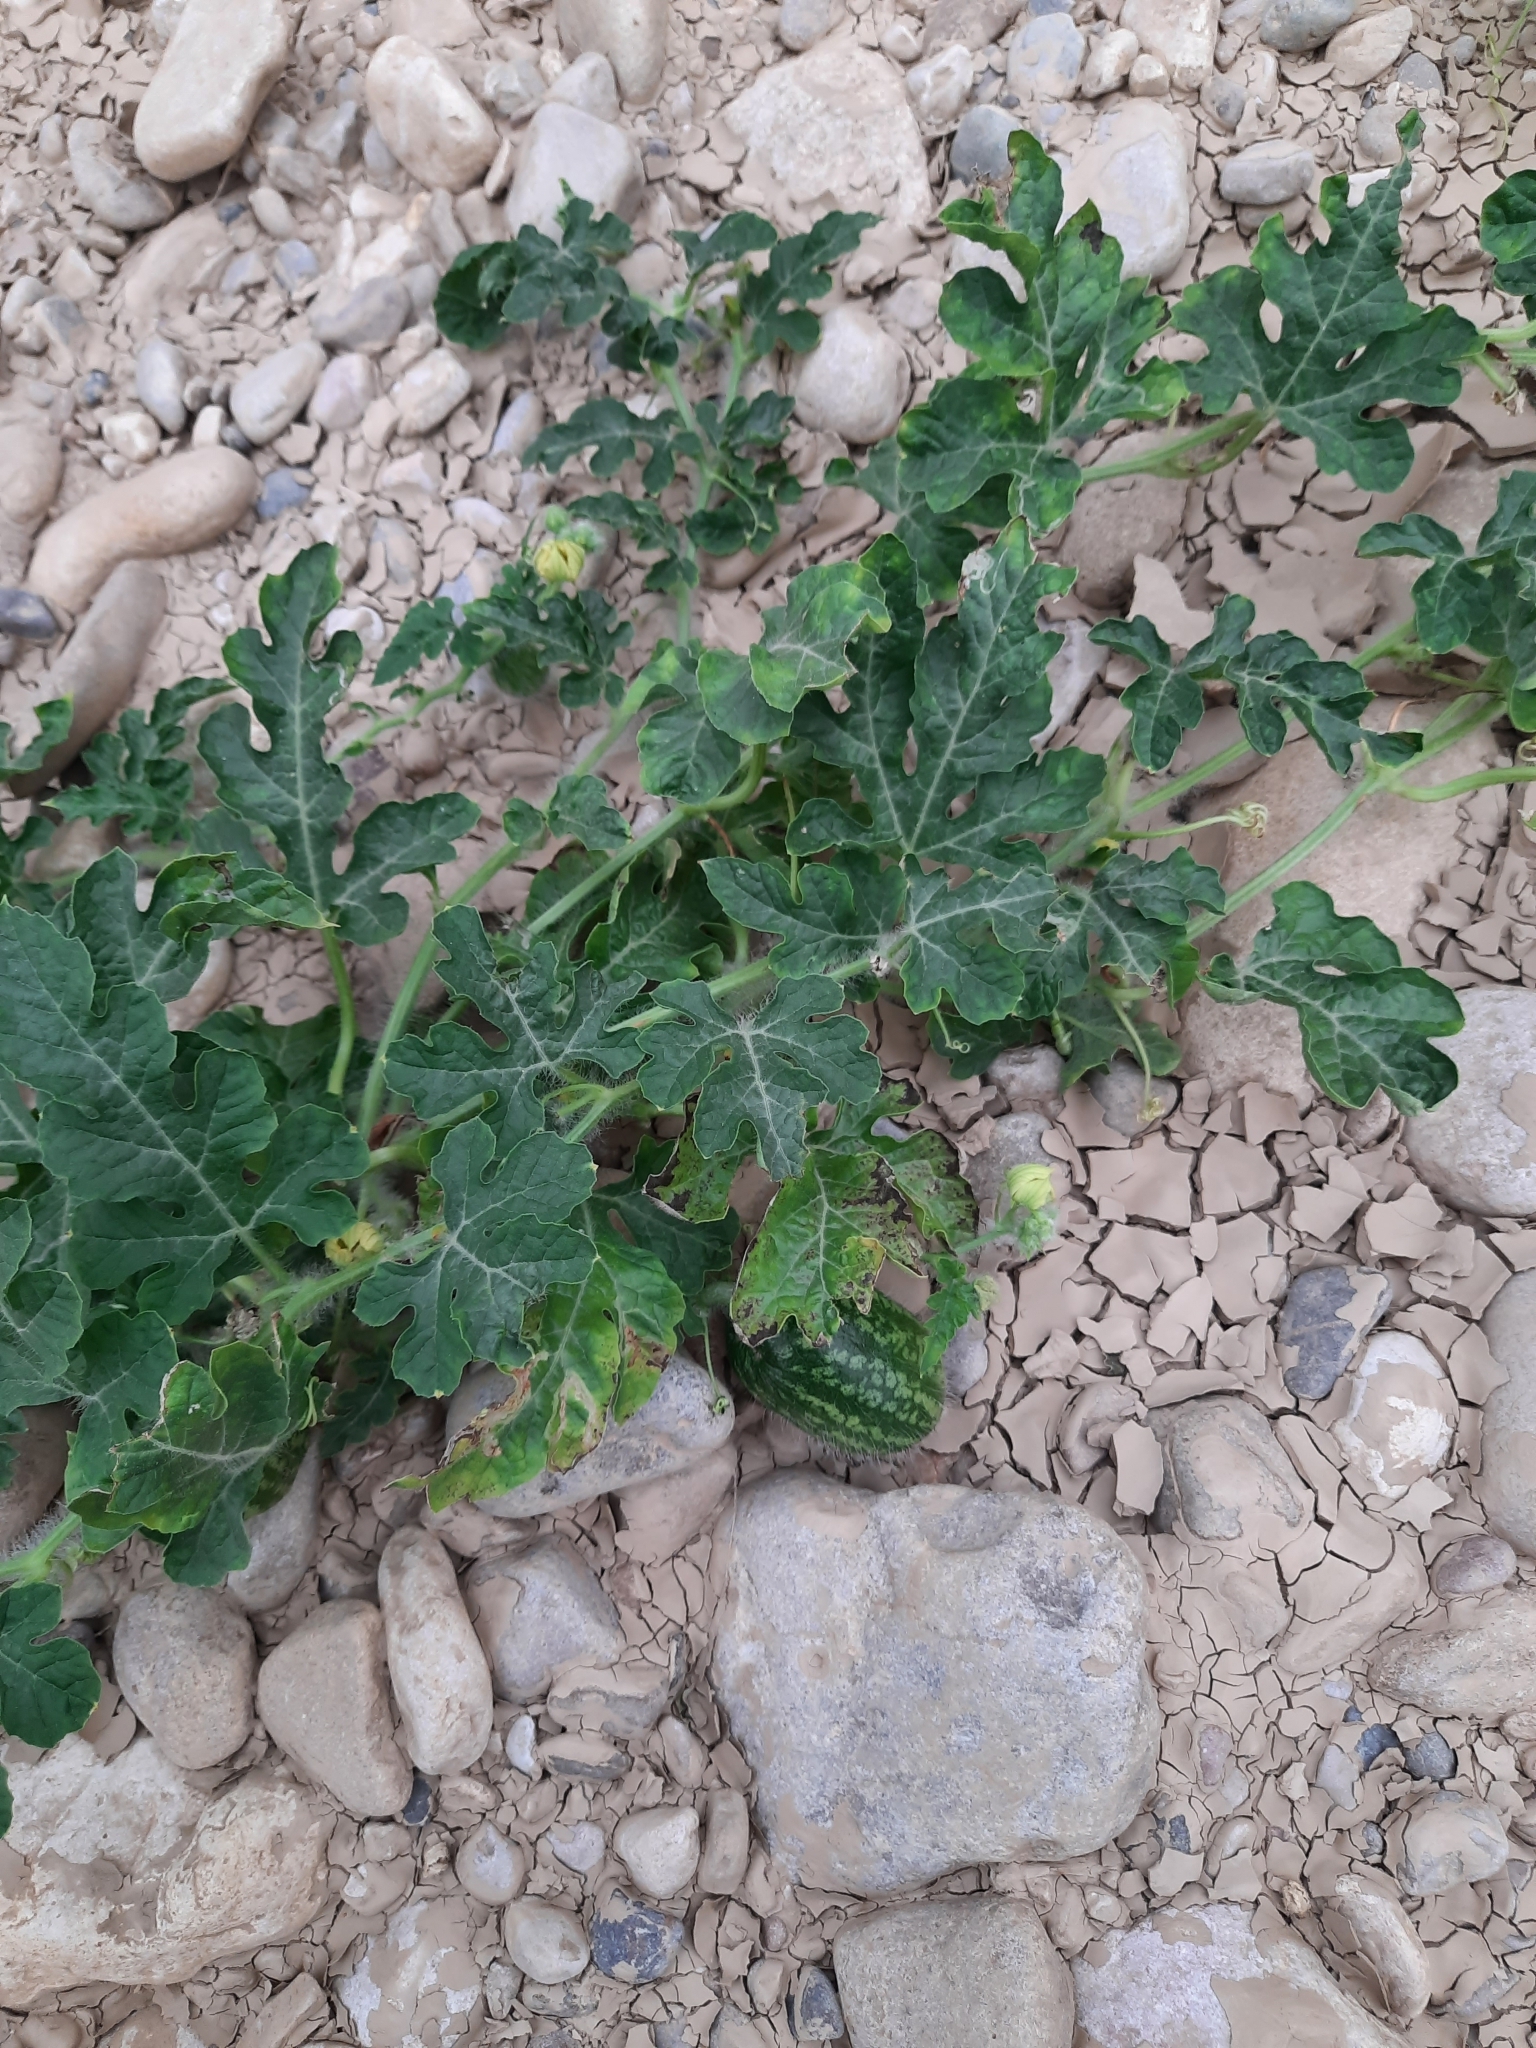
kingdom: Plantae
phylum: Tracheophyta
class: Magnoliopsida
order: Cucurbitales
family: Cucurbitaceae
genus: Citrullus
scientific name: Citrullus lanatus
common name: Watermelon
